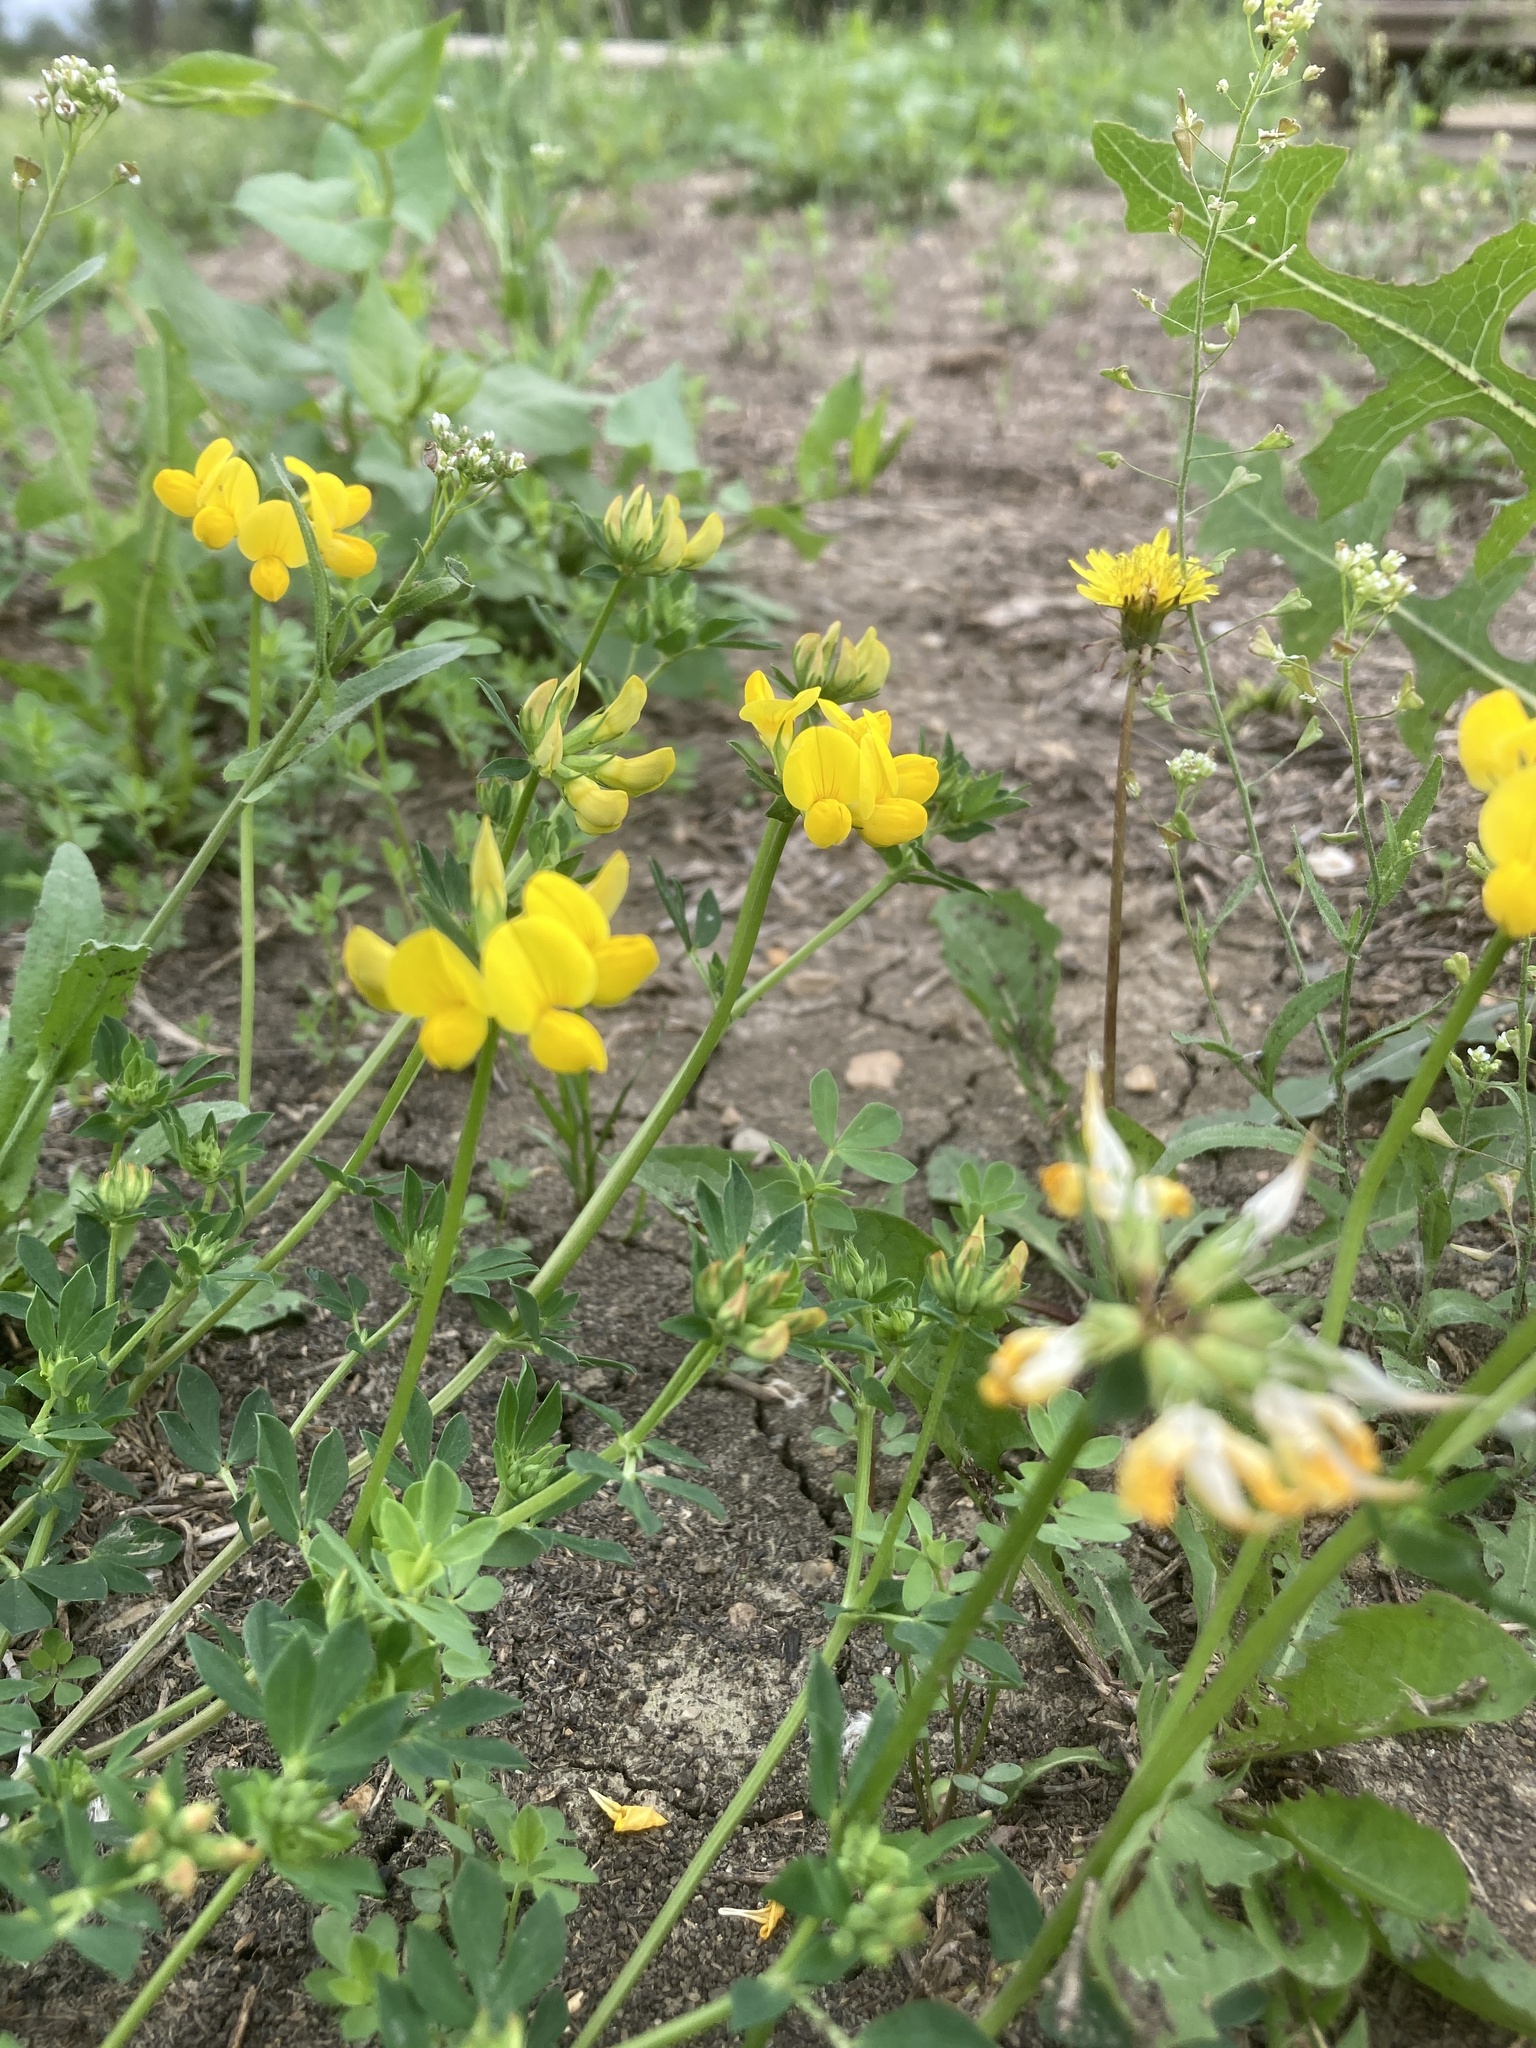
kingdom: Plantae
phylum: Tracheophyta
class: Magnoliopsida
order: Fabales
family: Fabaceae
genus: Lotus
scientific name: Lotus corniculatus
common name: Common bird's-foot-trefoil
